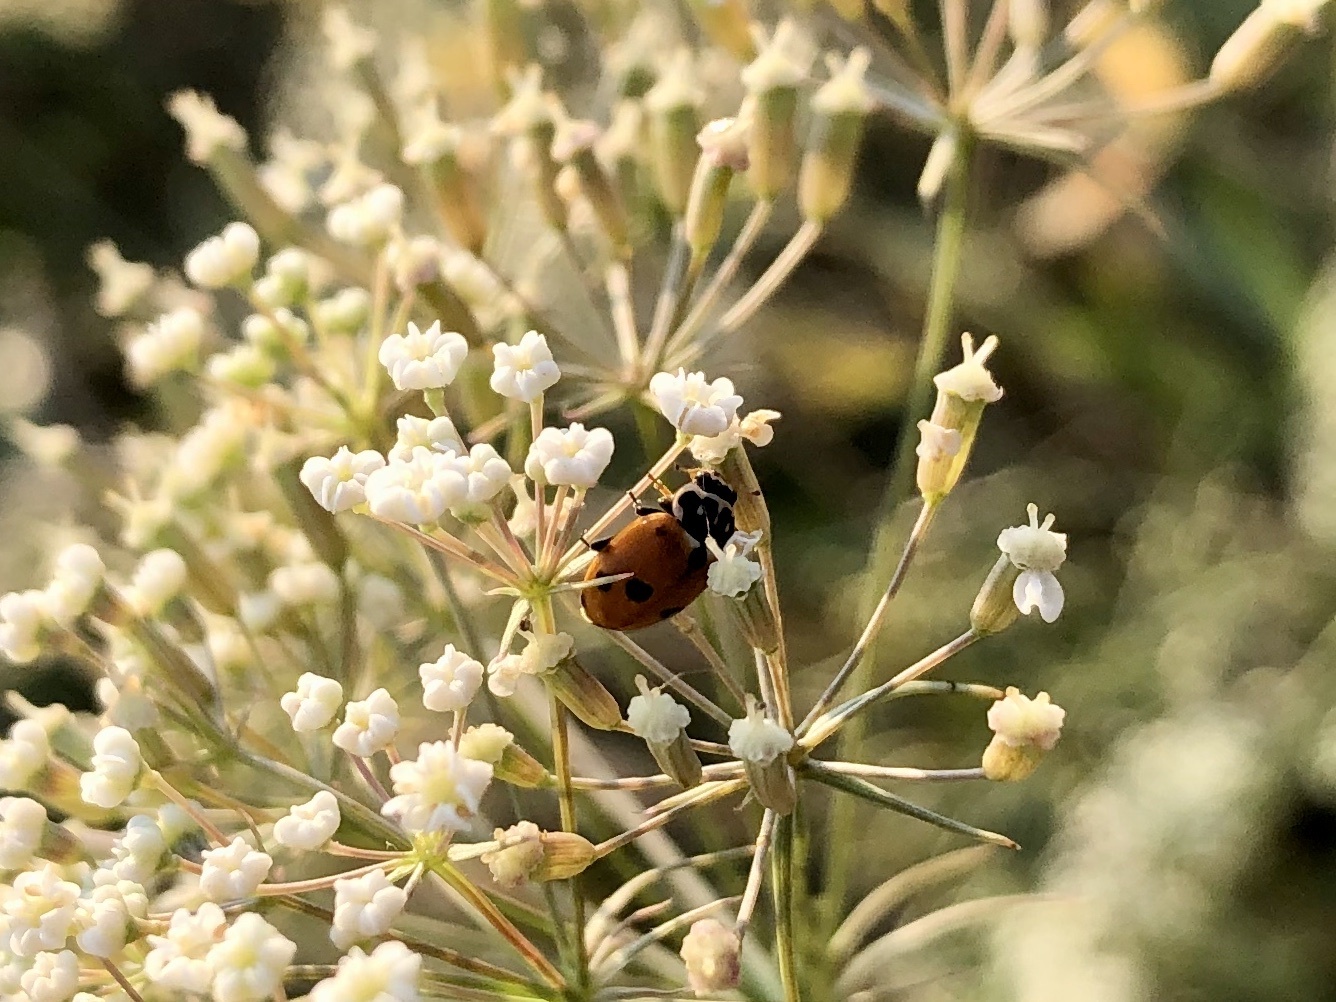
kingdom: Animalia
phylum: Arthropoda
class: Insecta
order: Coleoptera
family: Coccinellidae
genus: Hippodamia
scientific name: Hippodamia variegata
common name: Ladybird beetle
